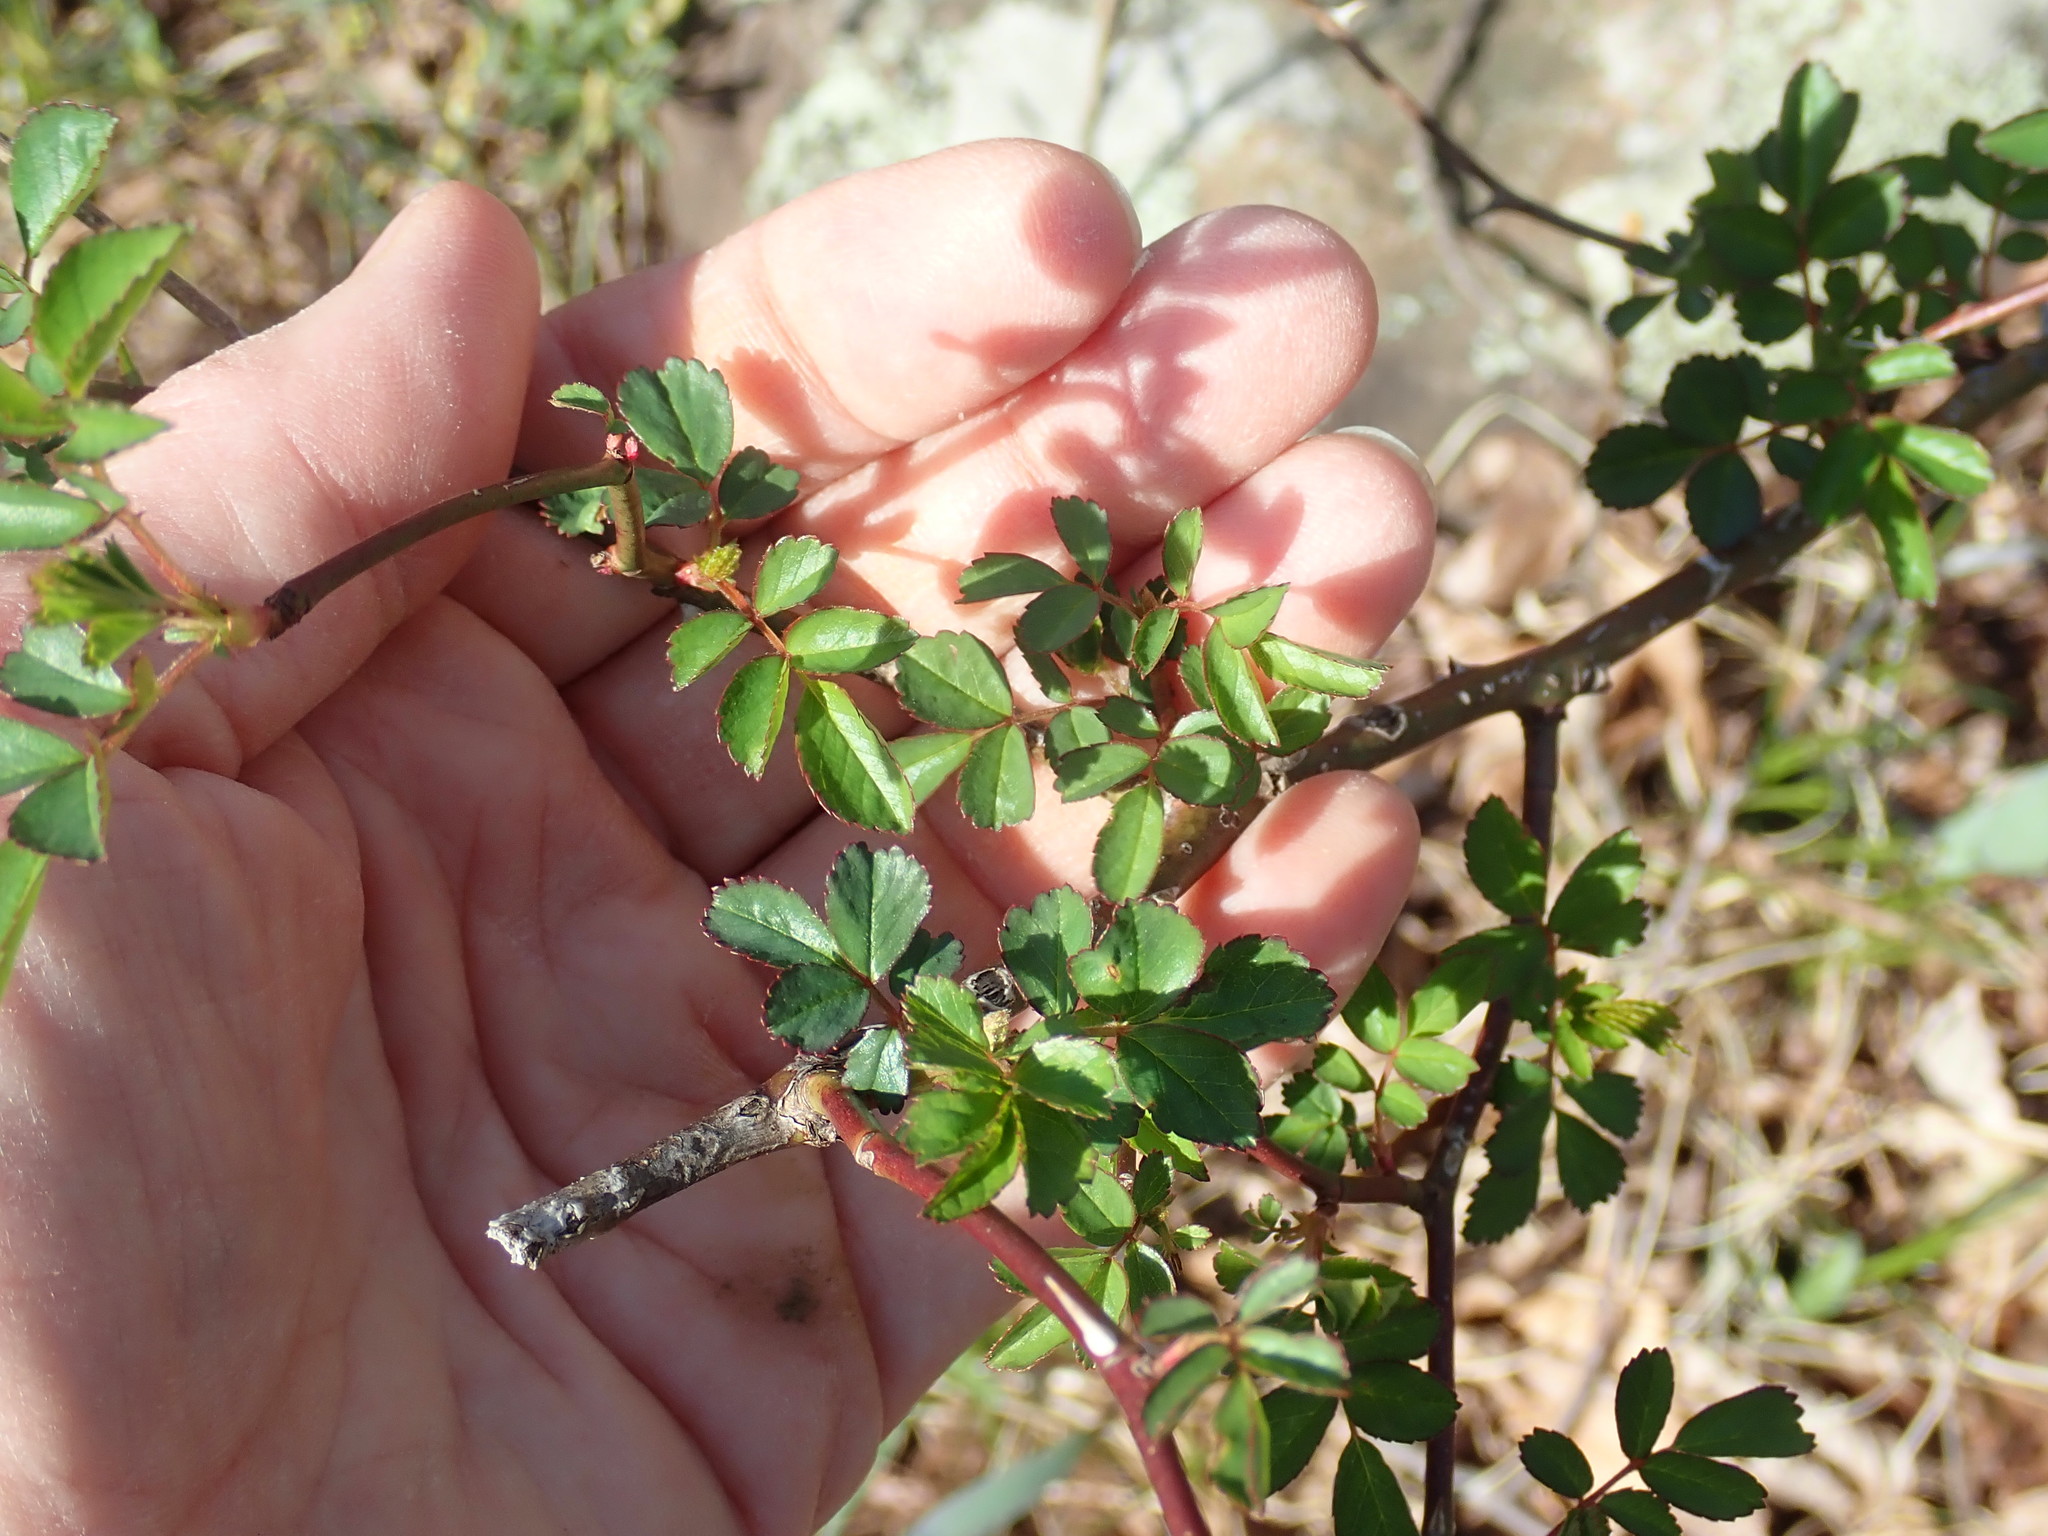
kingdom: Plantae
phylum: Tracheophyta
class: Magnoliopsida
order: Rosales
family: Rosaceae
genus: Rosa
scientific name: Rosa multiflora
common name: Multiflora rose
